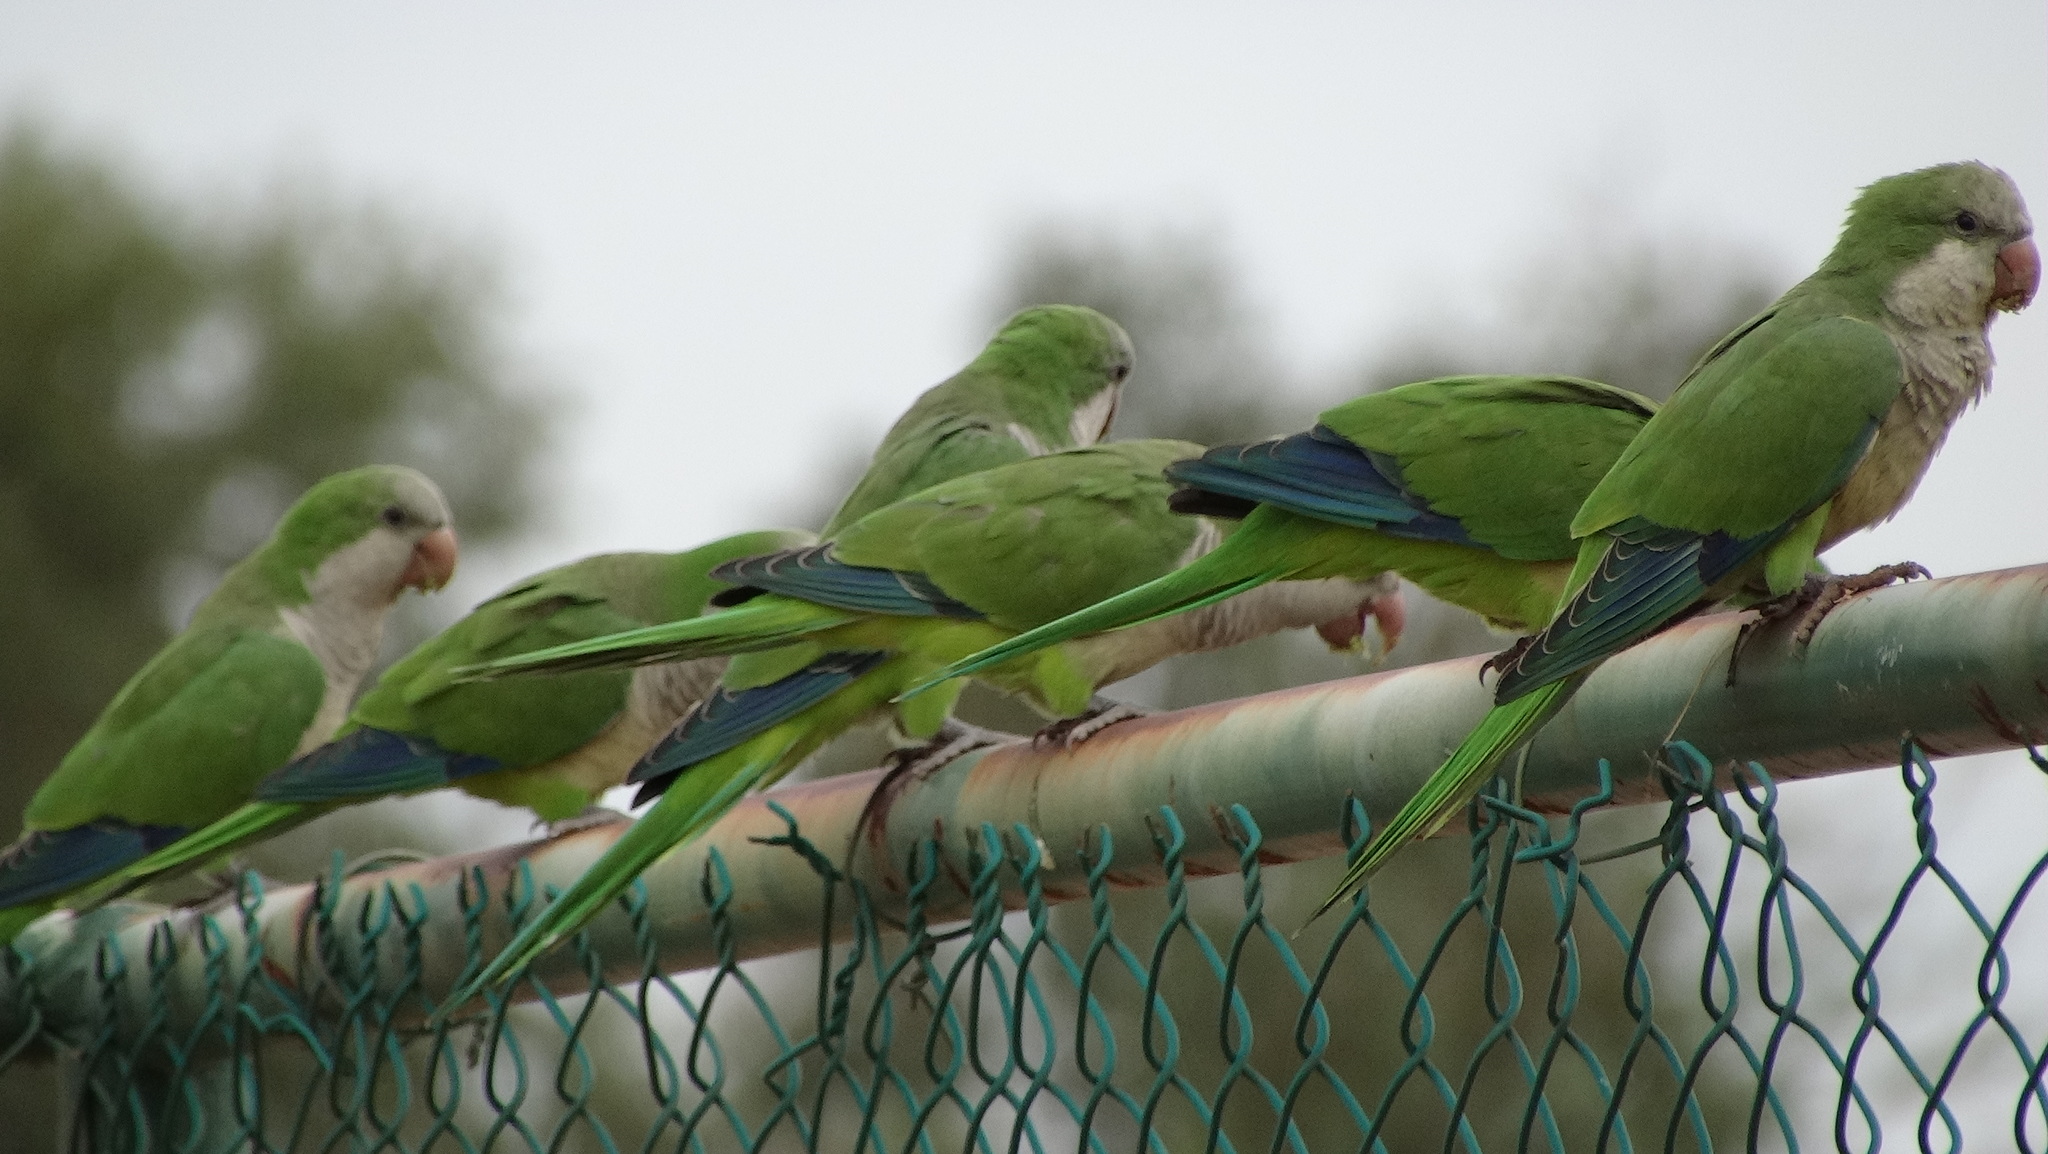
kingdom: Animalia
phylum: Chordata
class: Aves
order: Psittaciformes
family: Psittacidae
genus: Myiopsitta
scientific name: Myiopsitta monachus
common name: Monk parakeet
